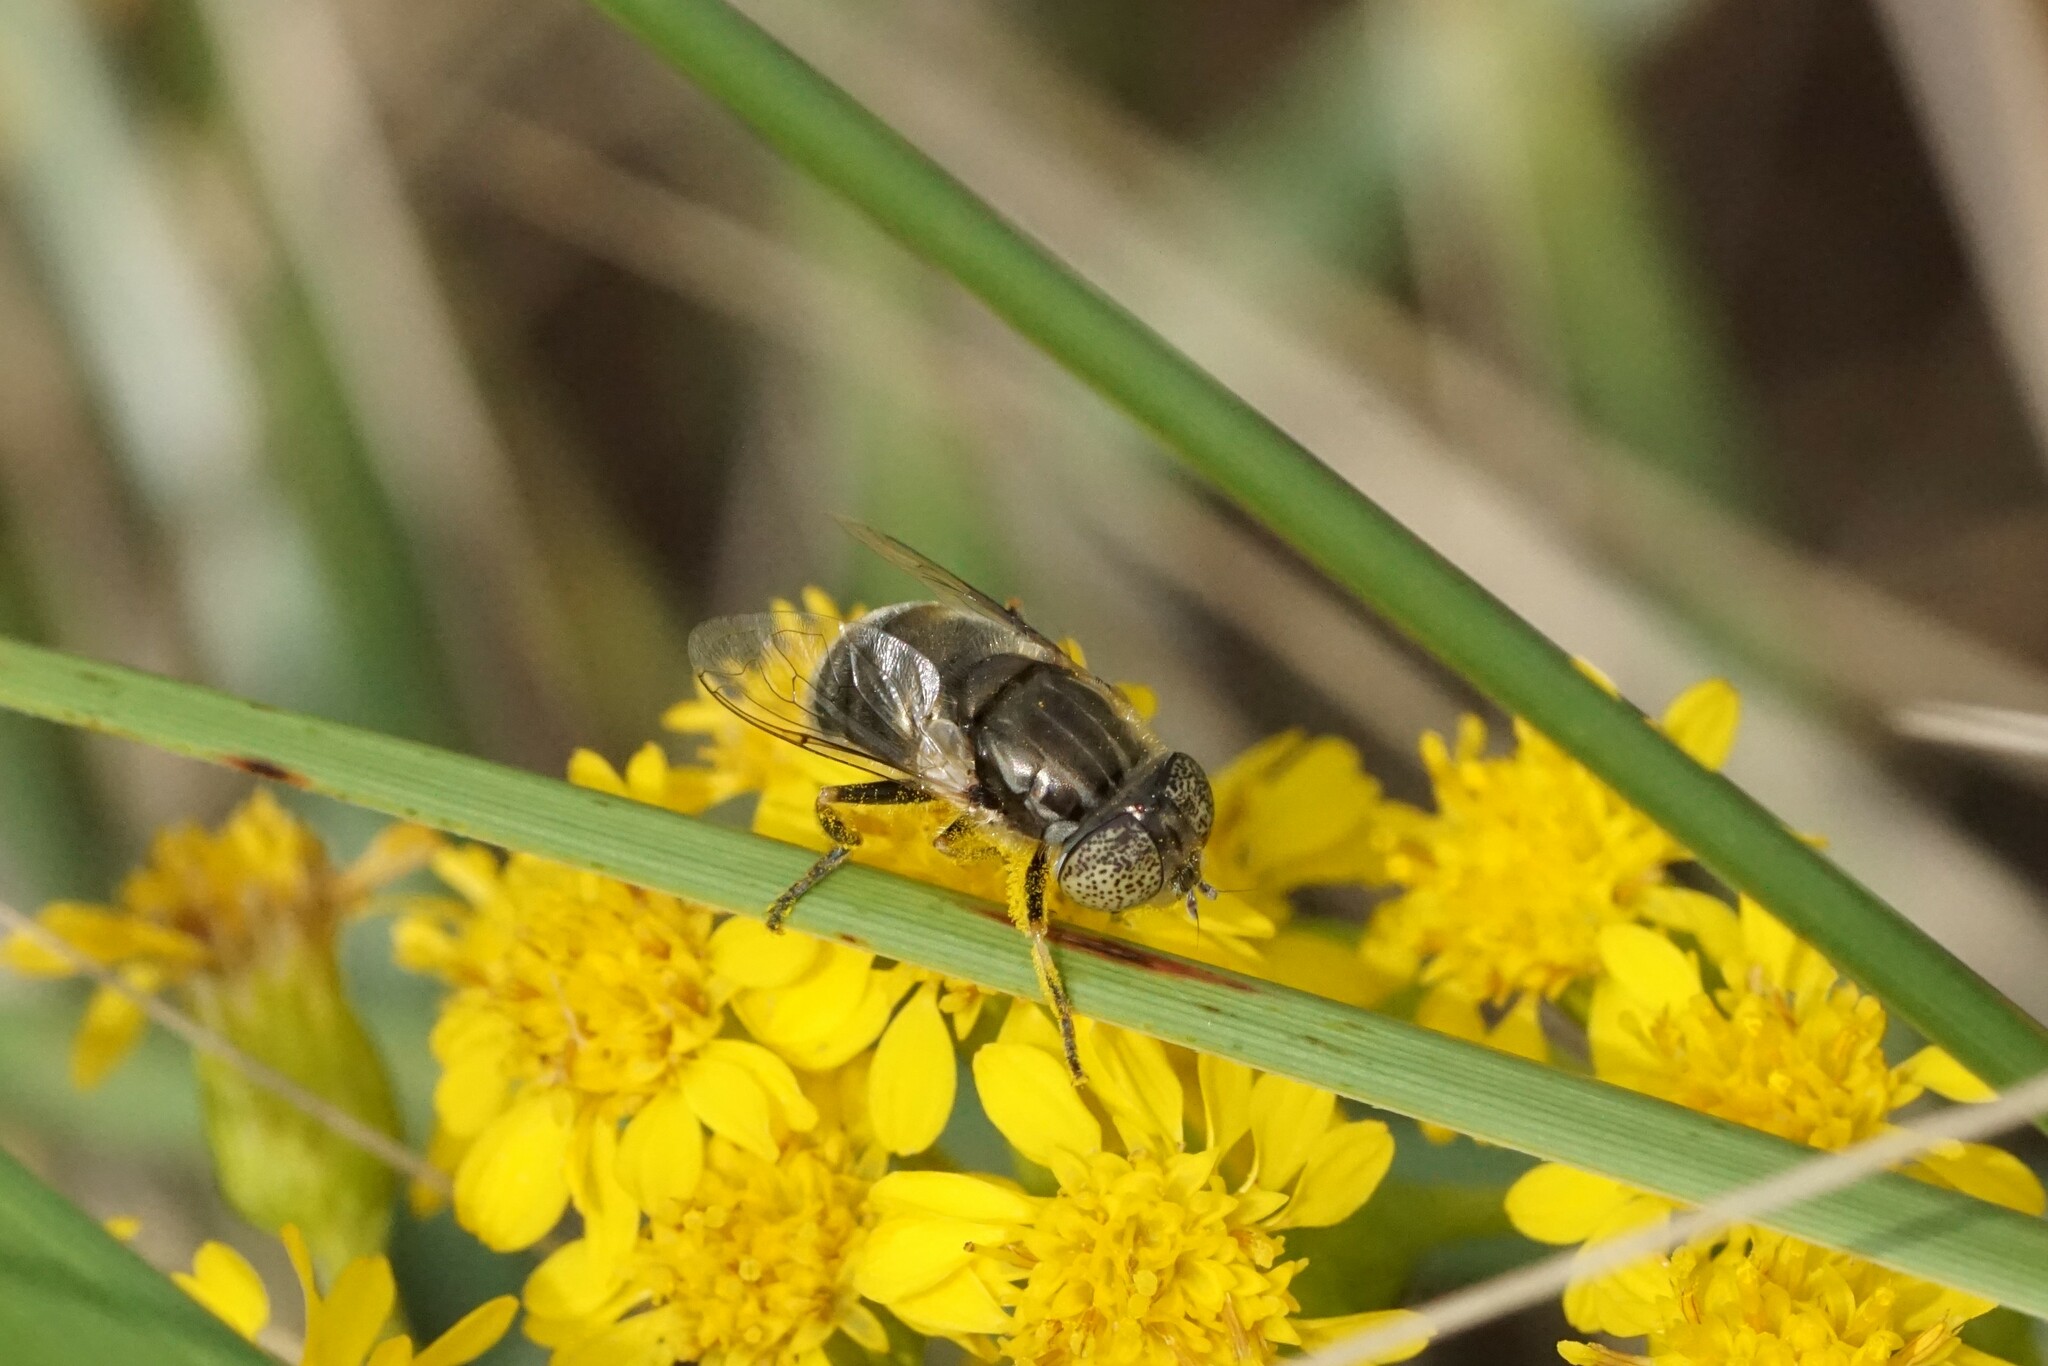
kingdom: Animalia
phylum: Arthropoda
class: Insecta
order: Diptera
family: Syrphidae
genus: Eristalinus
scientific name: Eristalinus aeneus
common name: Syrphid fly
